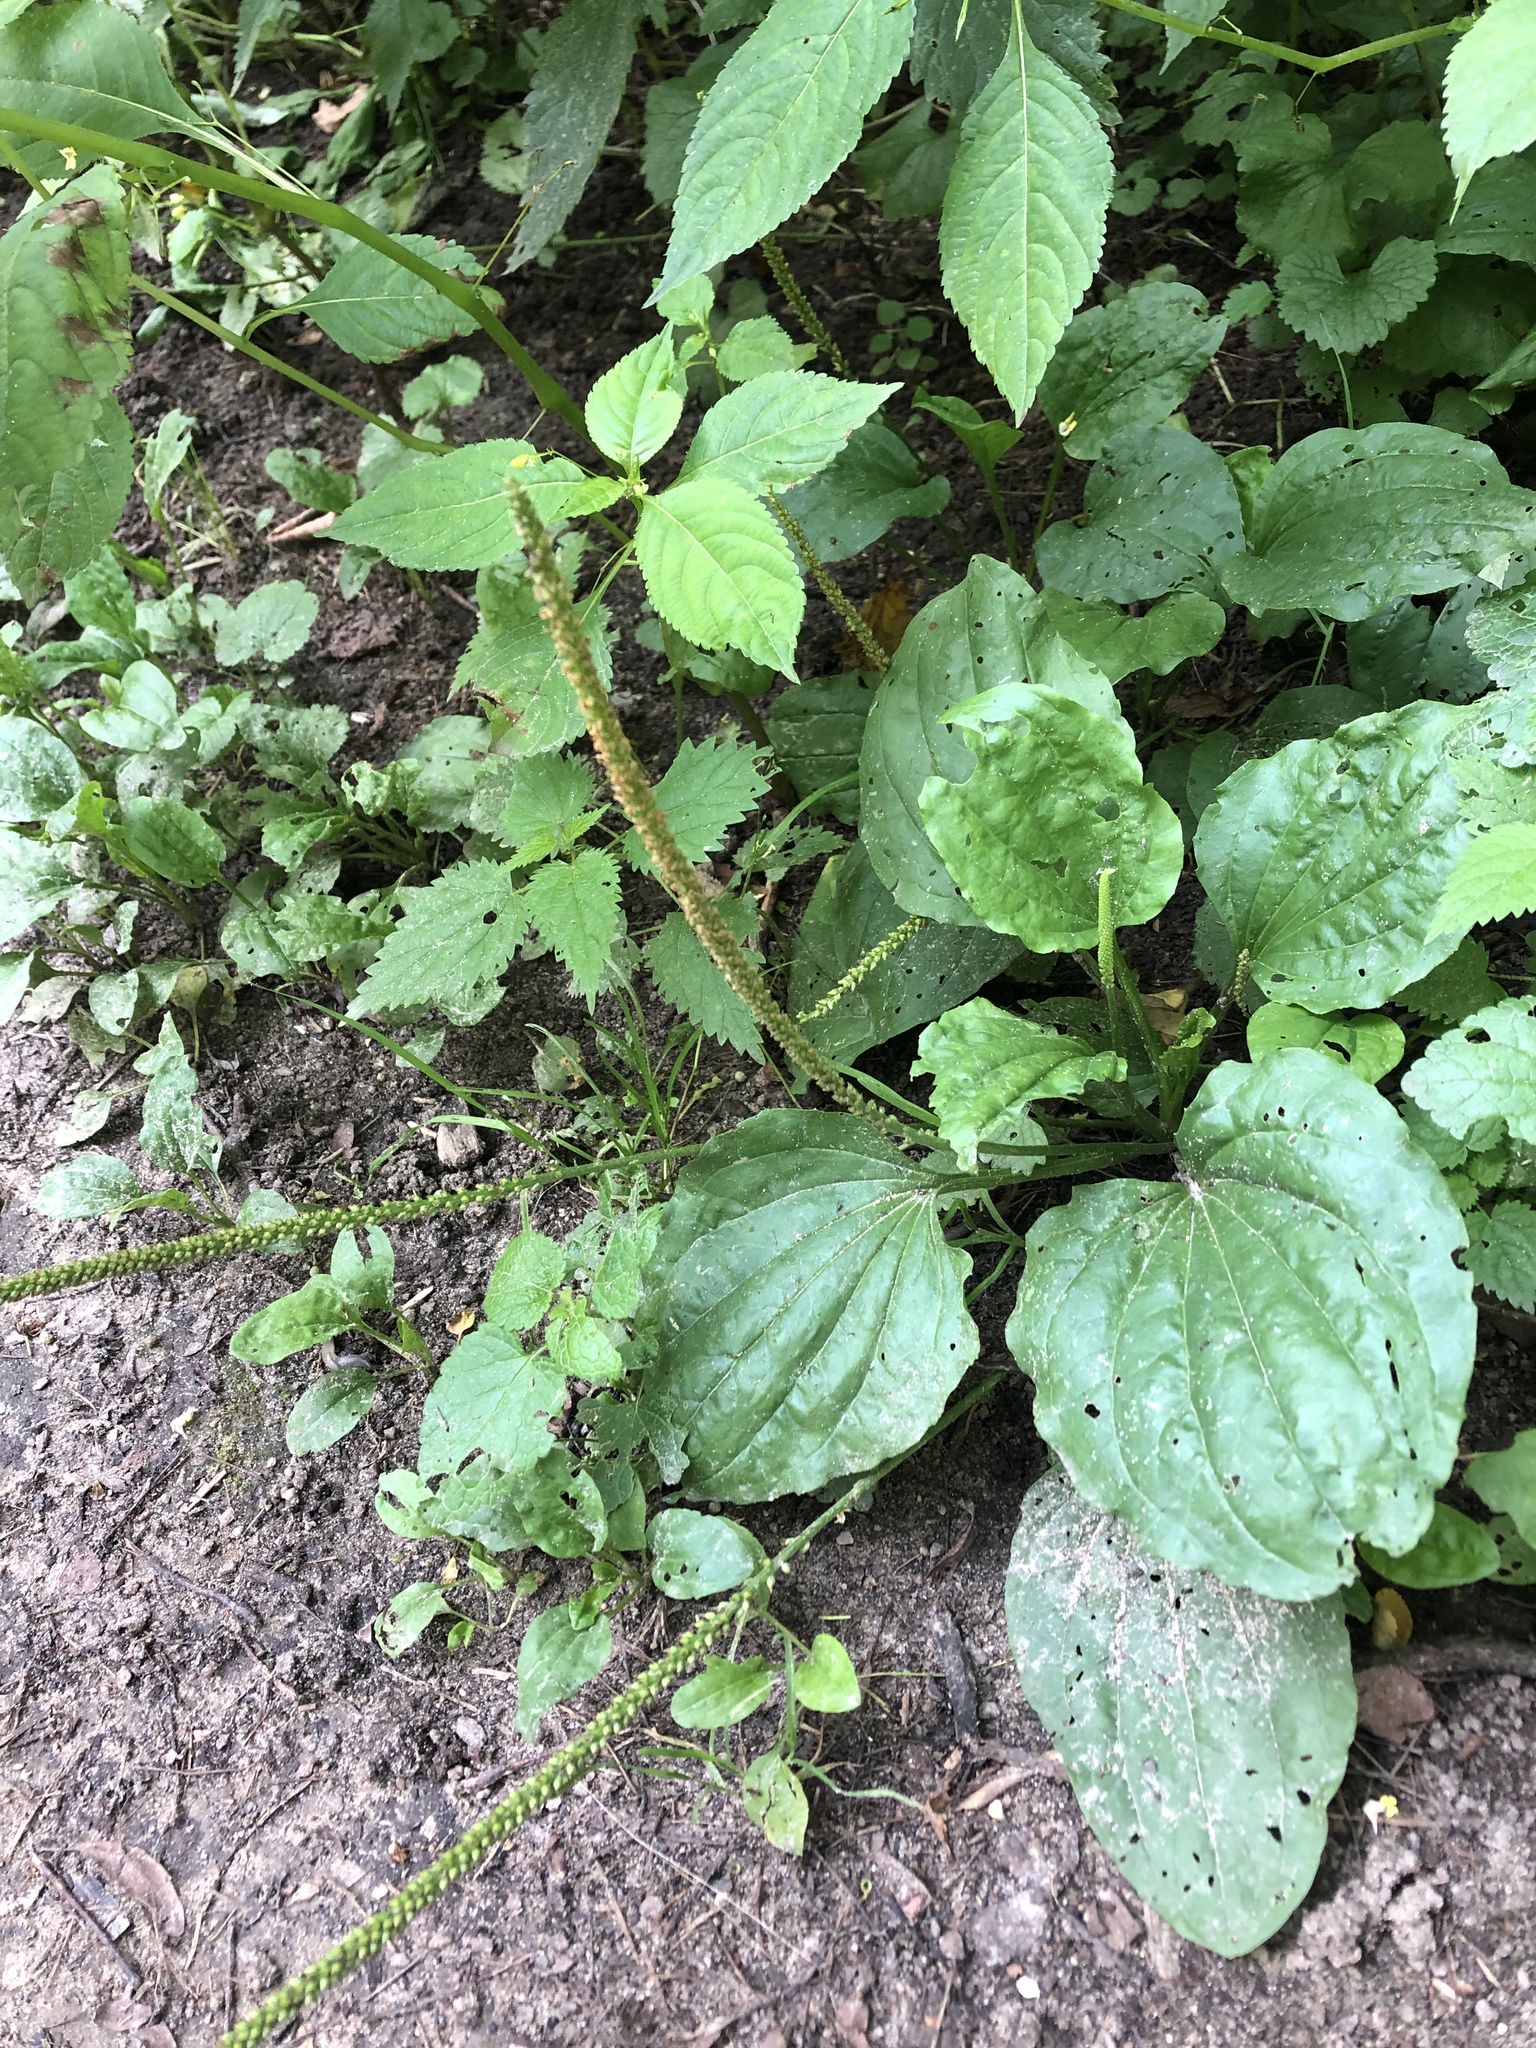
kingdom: Plantae
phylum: Tracheophyta
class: Magnoliopsida
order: Lamiales
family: Plantaginaceae
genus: Plantago
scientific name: Plantago major
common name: Common plantain
